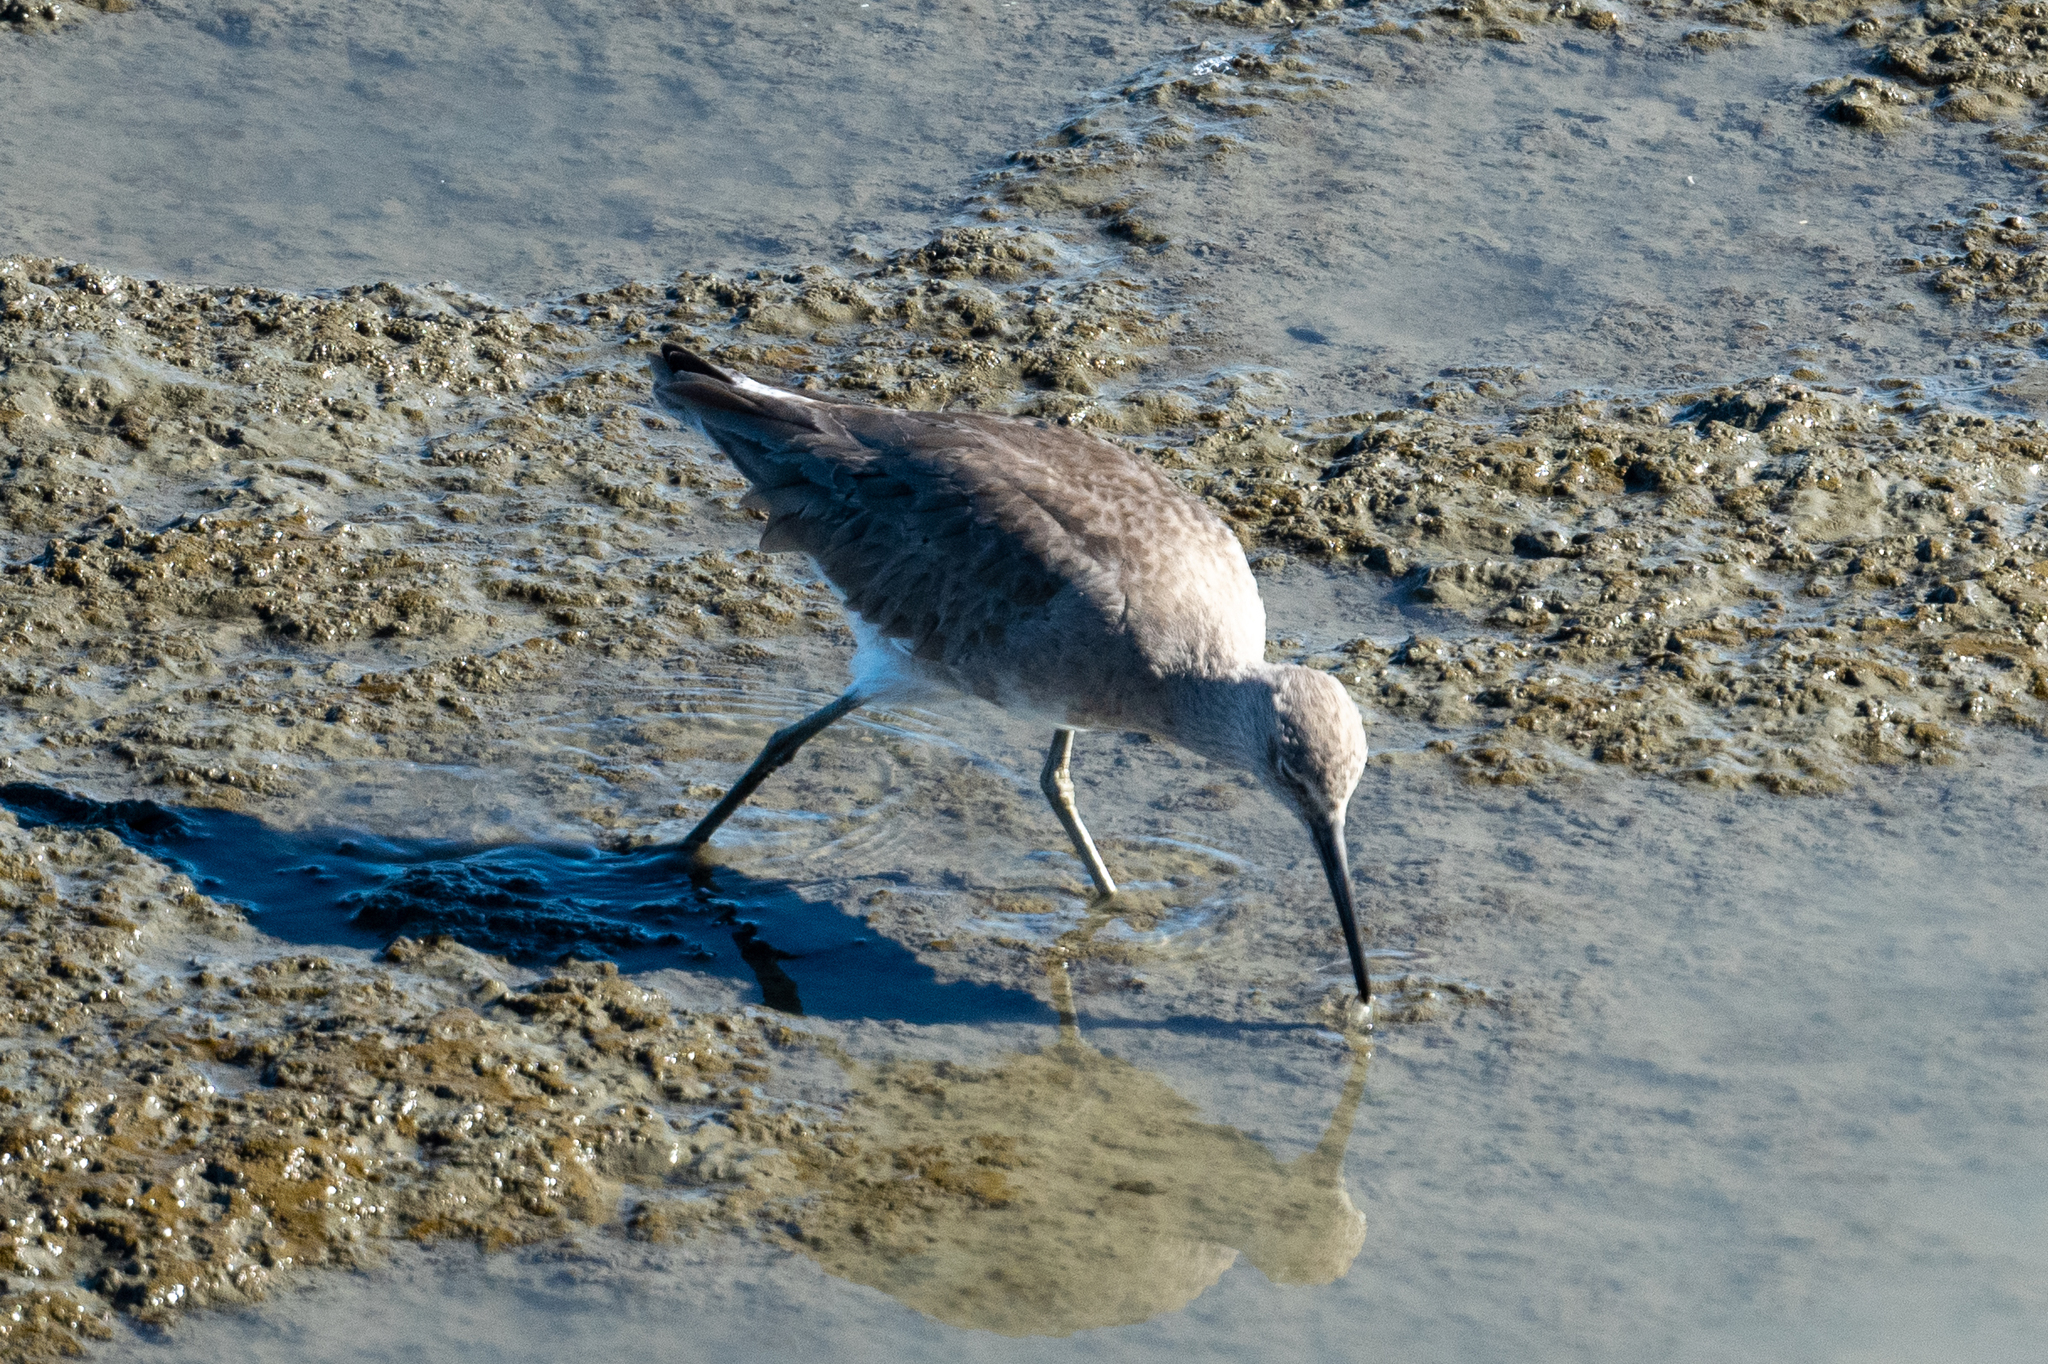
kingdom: Animalia
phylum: Chordata
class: Aves
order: Charadriiformes
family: Scolopacidae
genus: Tringa
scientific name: Tringa semipalmata
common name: Willet
